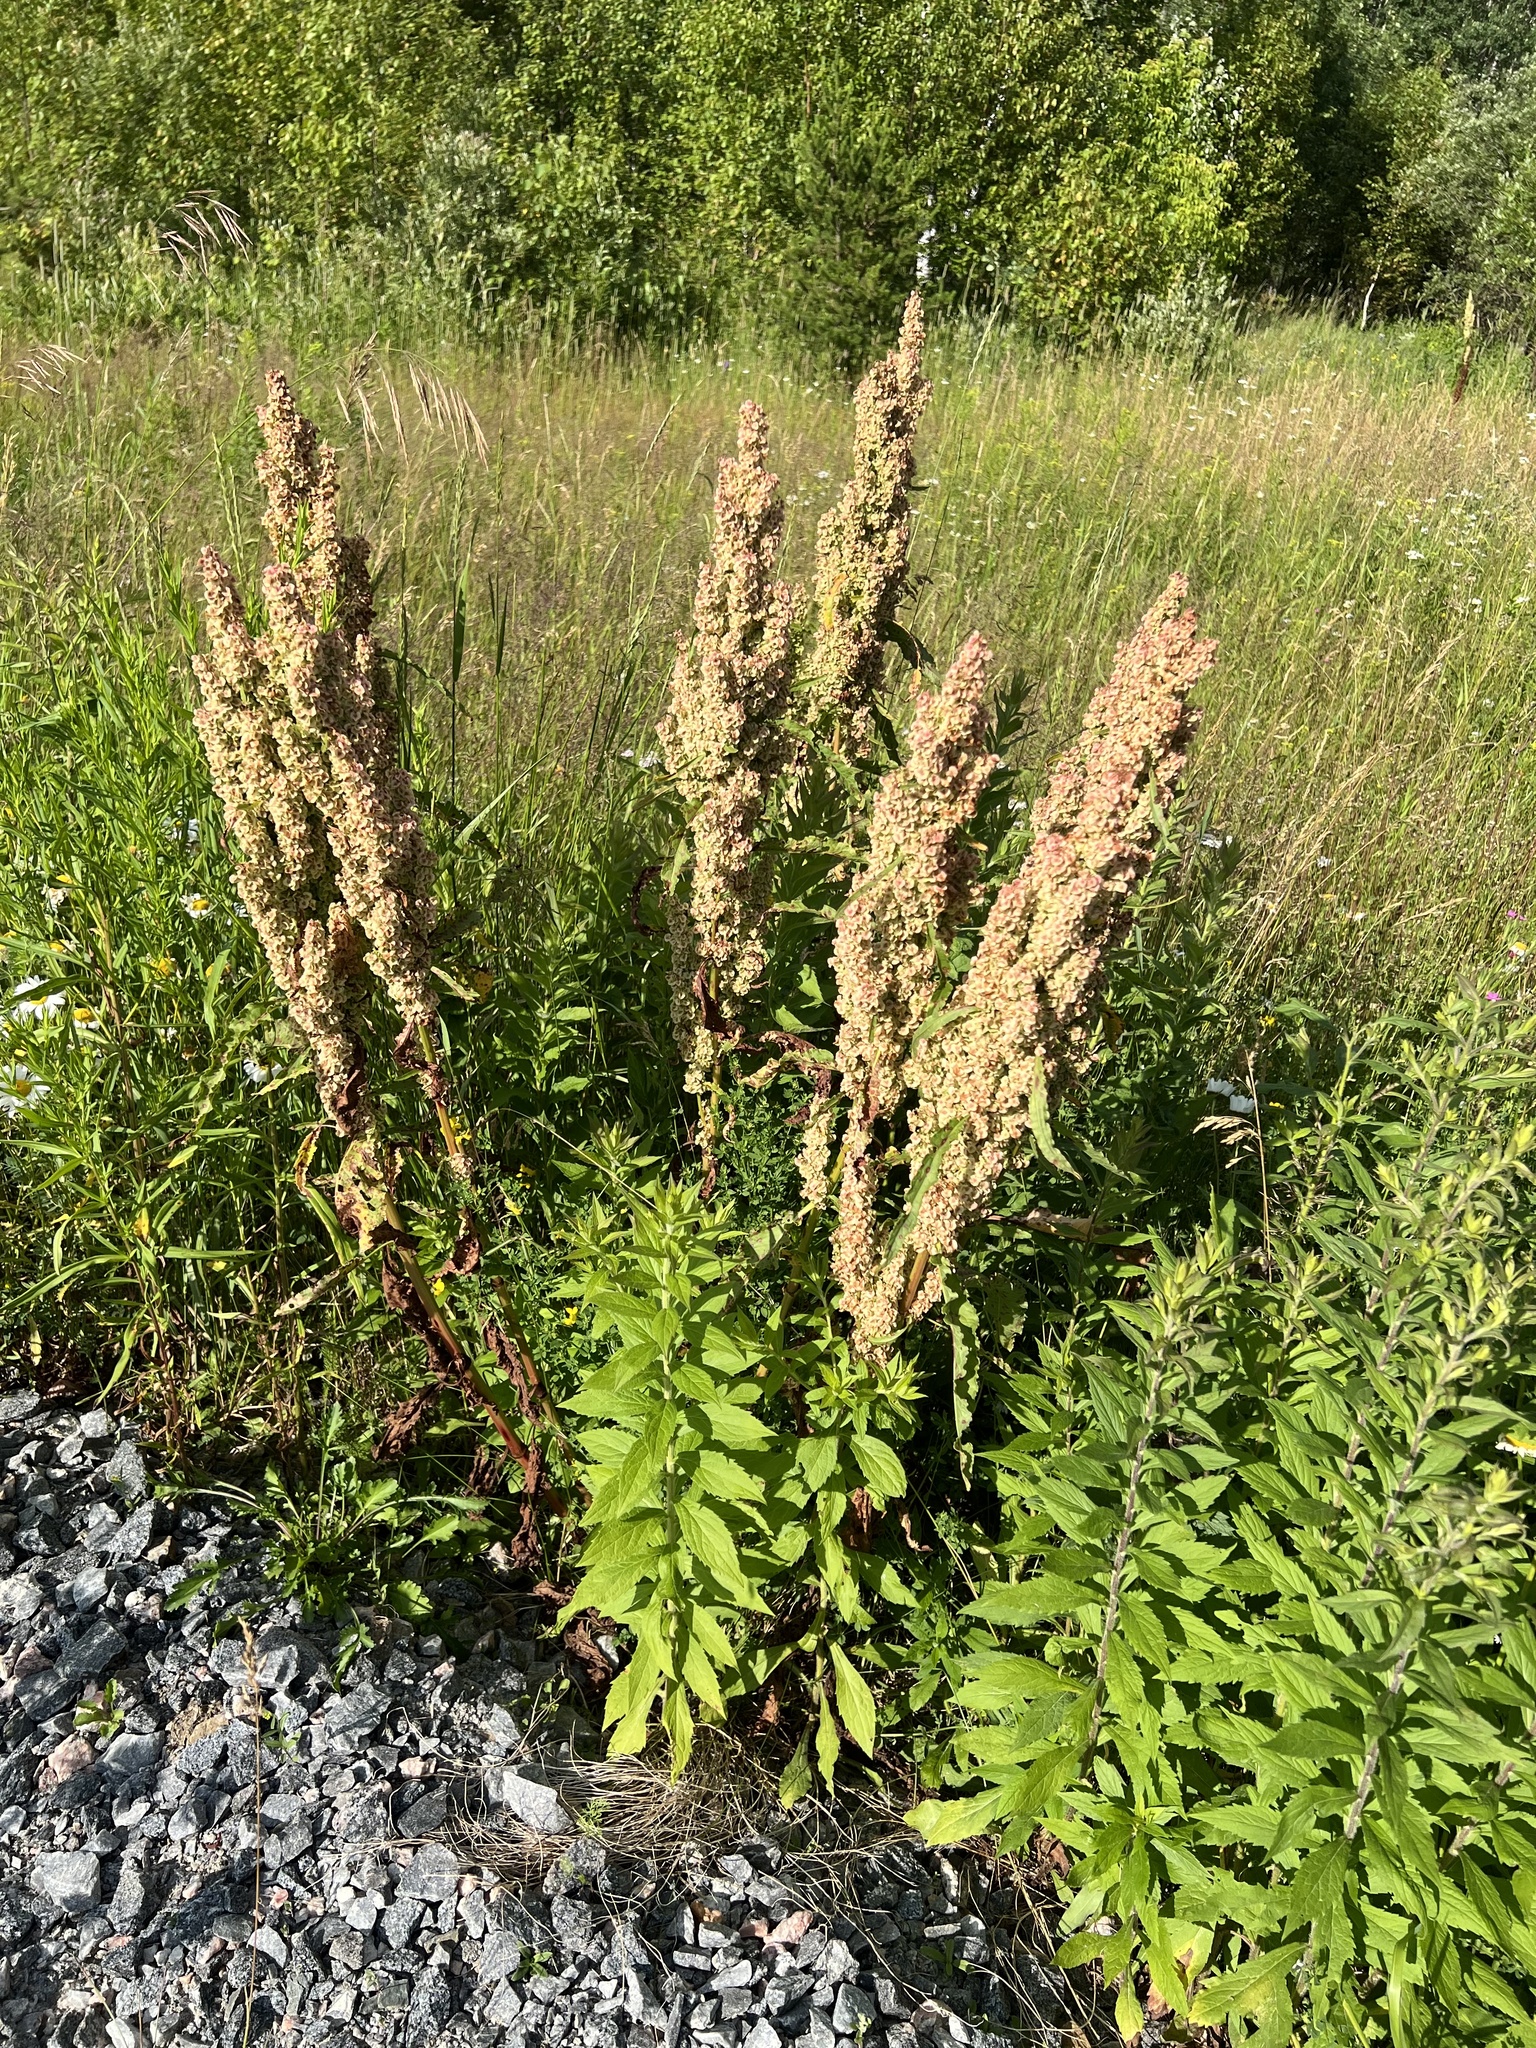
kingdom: Plantae
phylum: Tracheophyta
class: Magnoliopsida
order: Caryophyllales
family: Polygonaceae
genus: Rumex
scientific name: Rumex crispus
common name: Curled dock
